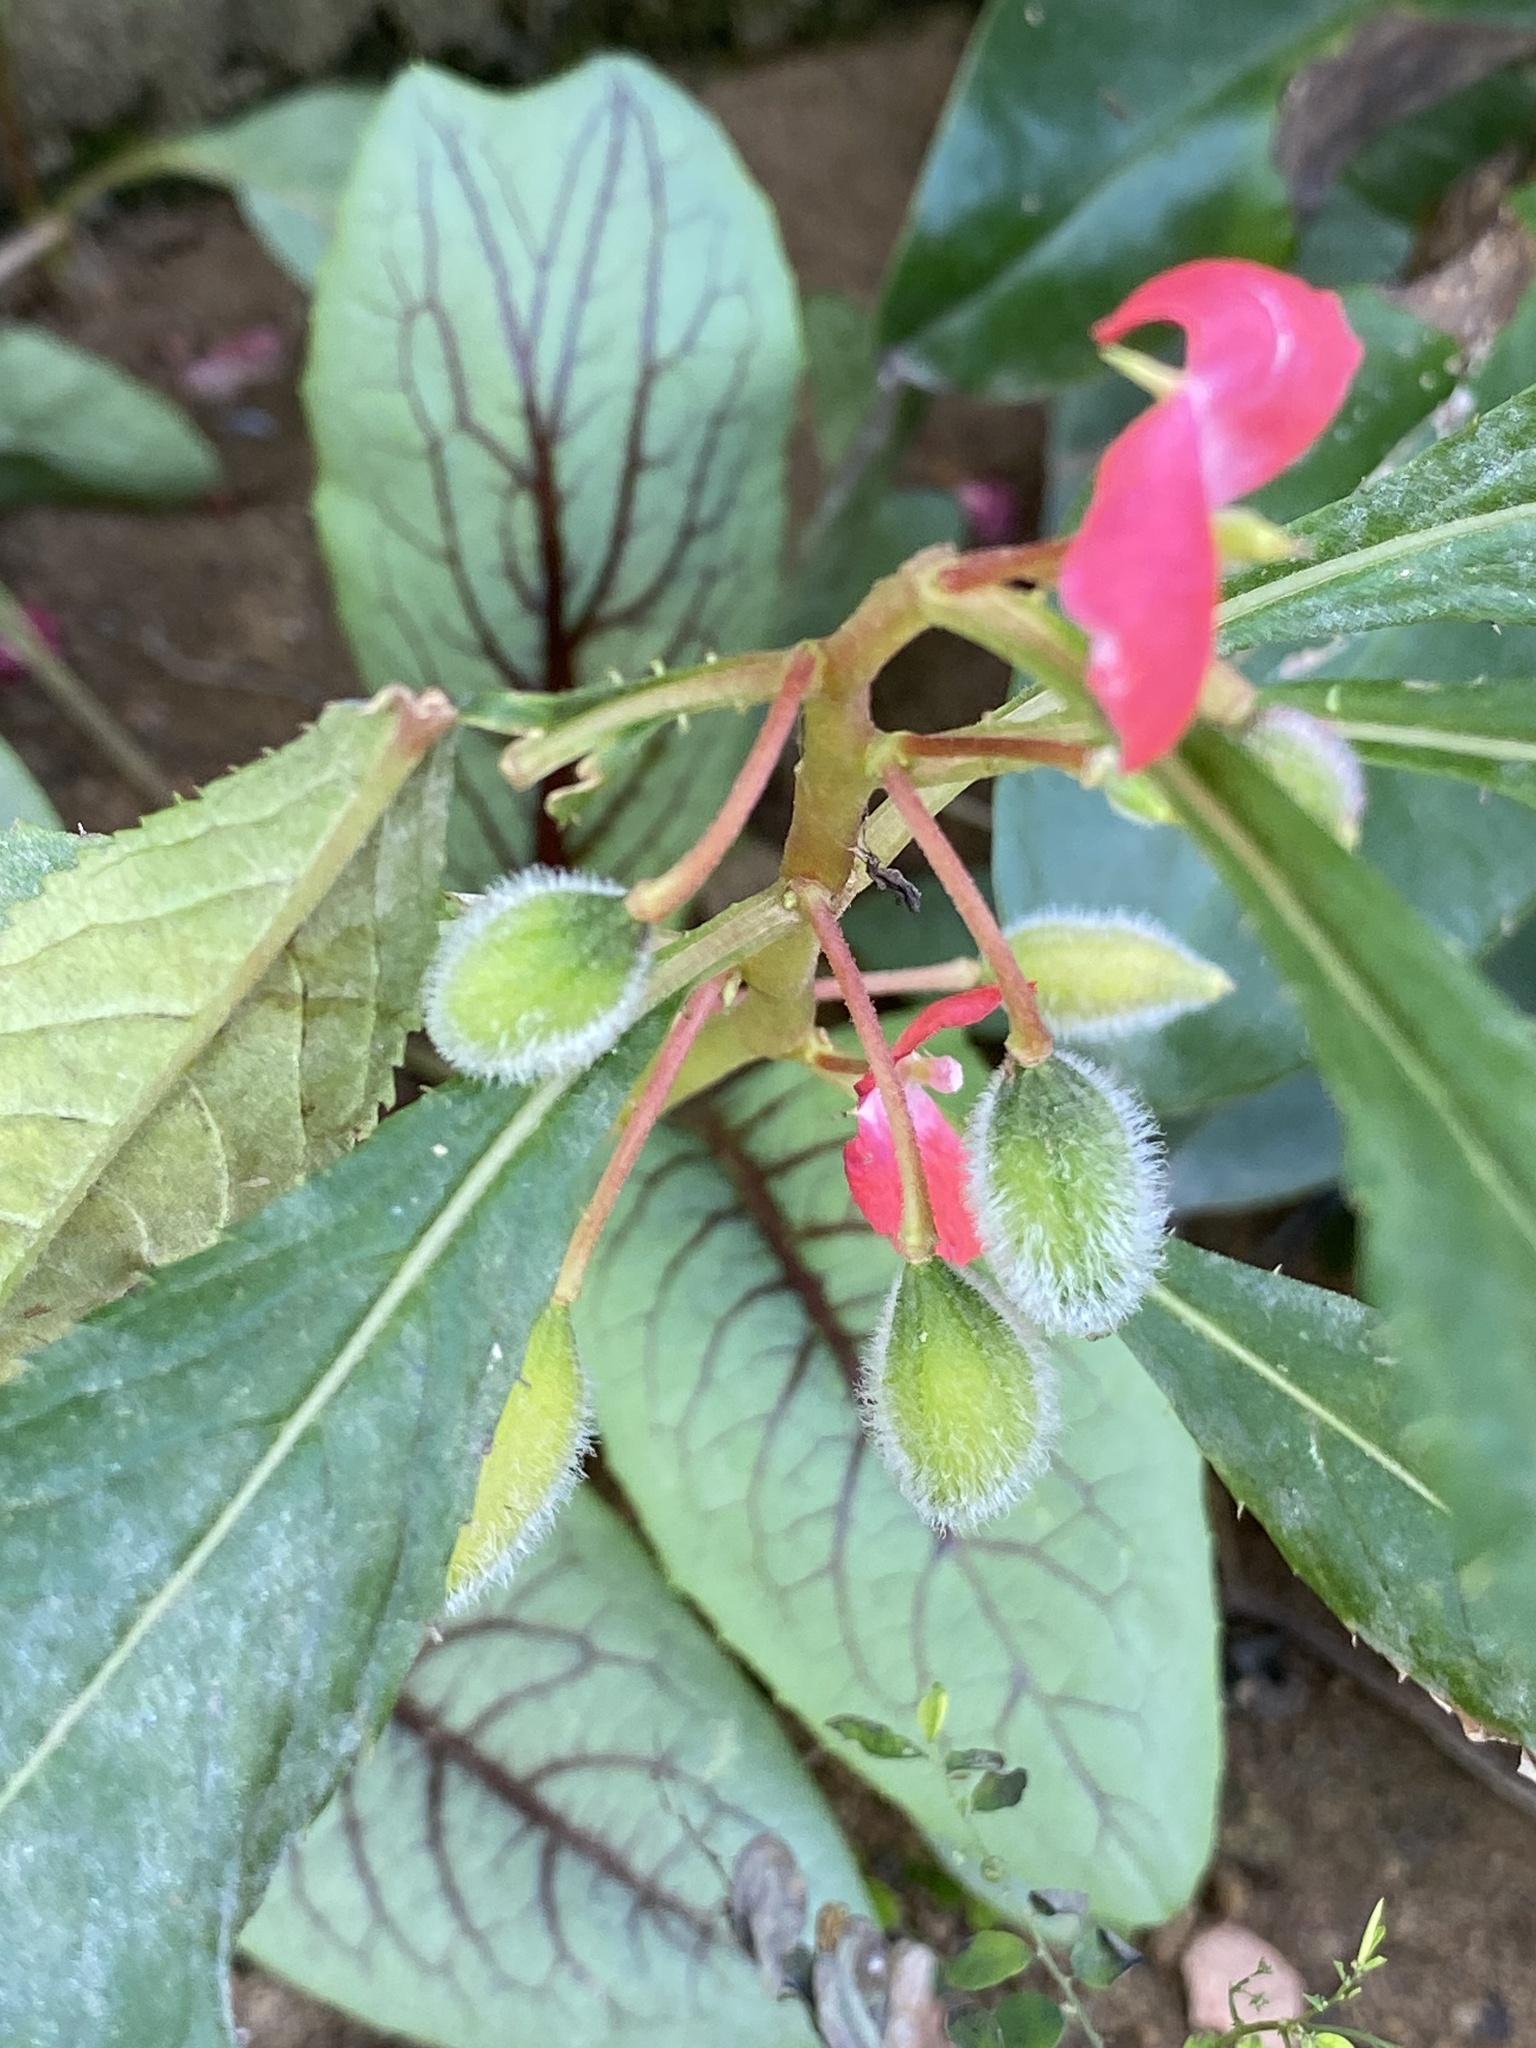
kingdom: Plantae
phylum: Tracheophyta
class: Magnoliopsida
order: Ericales
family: Balsaminaceae
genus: Impatiens
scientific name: Impatiens balsamina
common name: Balsam
